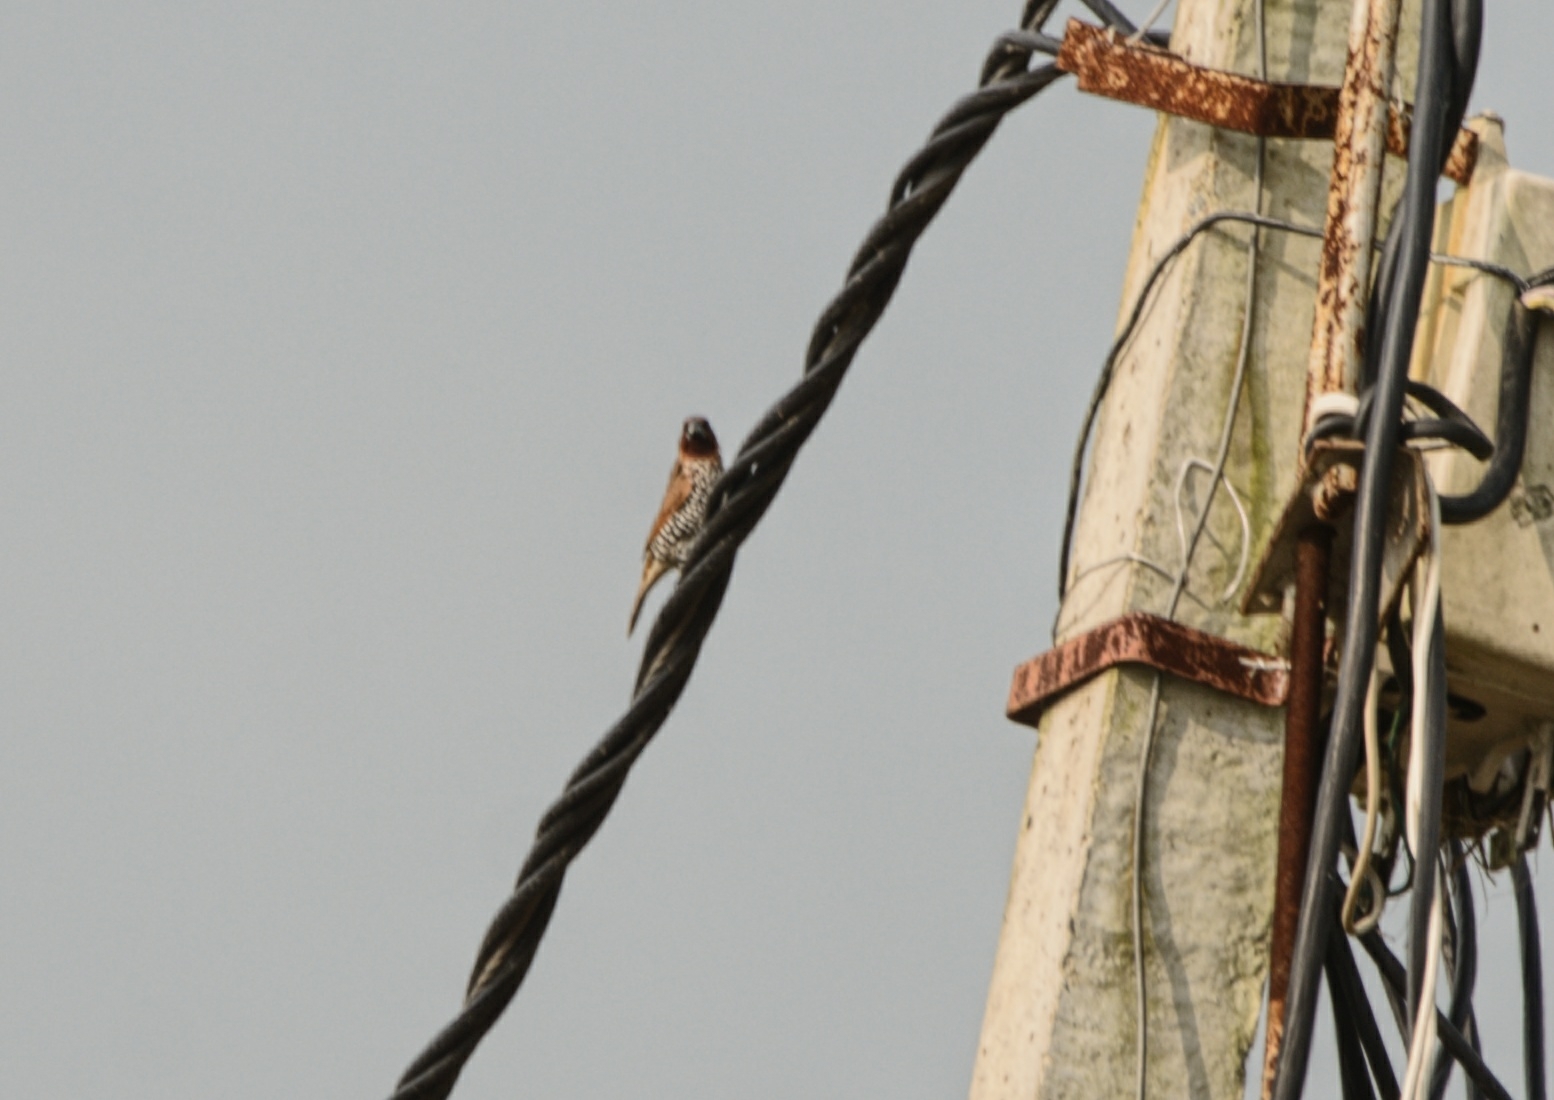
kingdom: Animalia
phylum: Chordata
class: Aves
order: Passeriformes
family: Estrildidae
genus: Lonchura
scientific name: Lonchura punctulata
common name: Scaly-breasted munia
